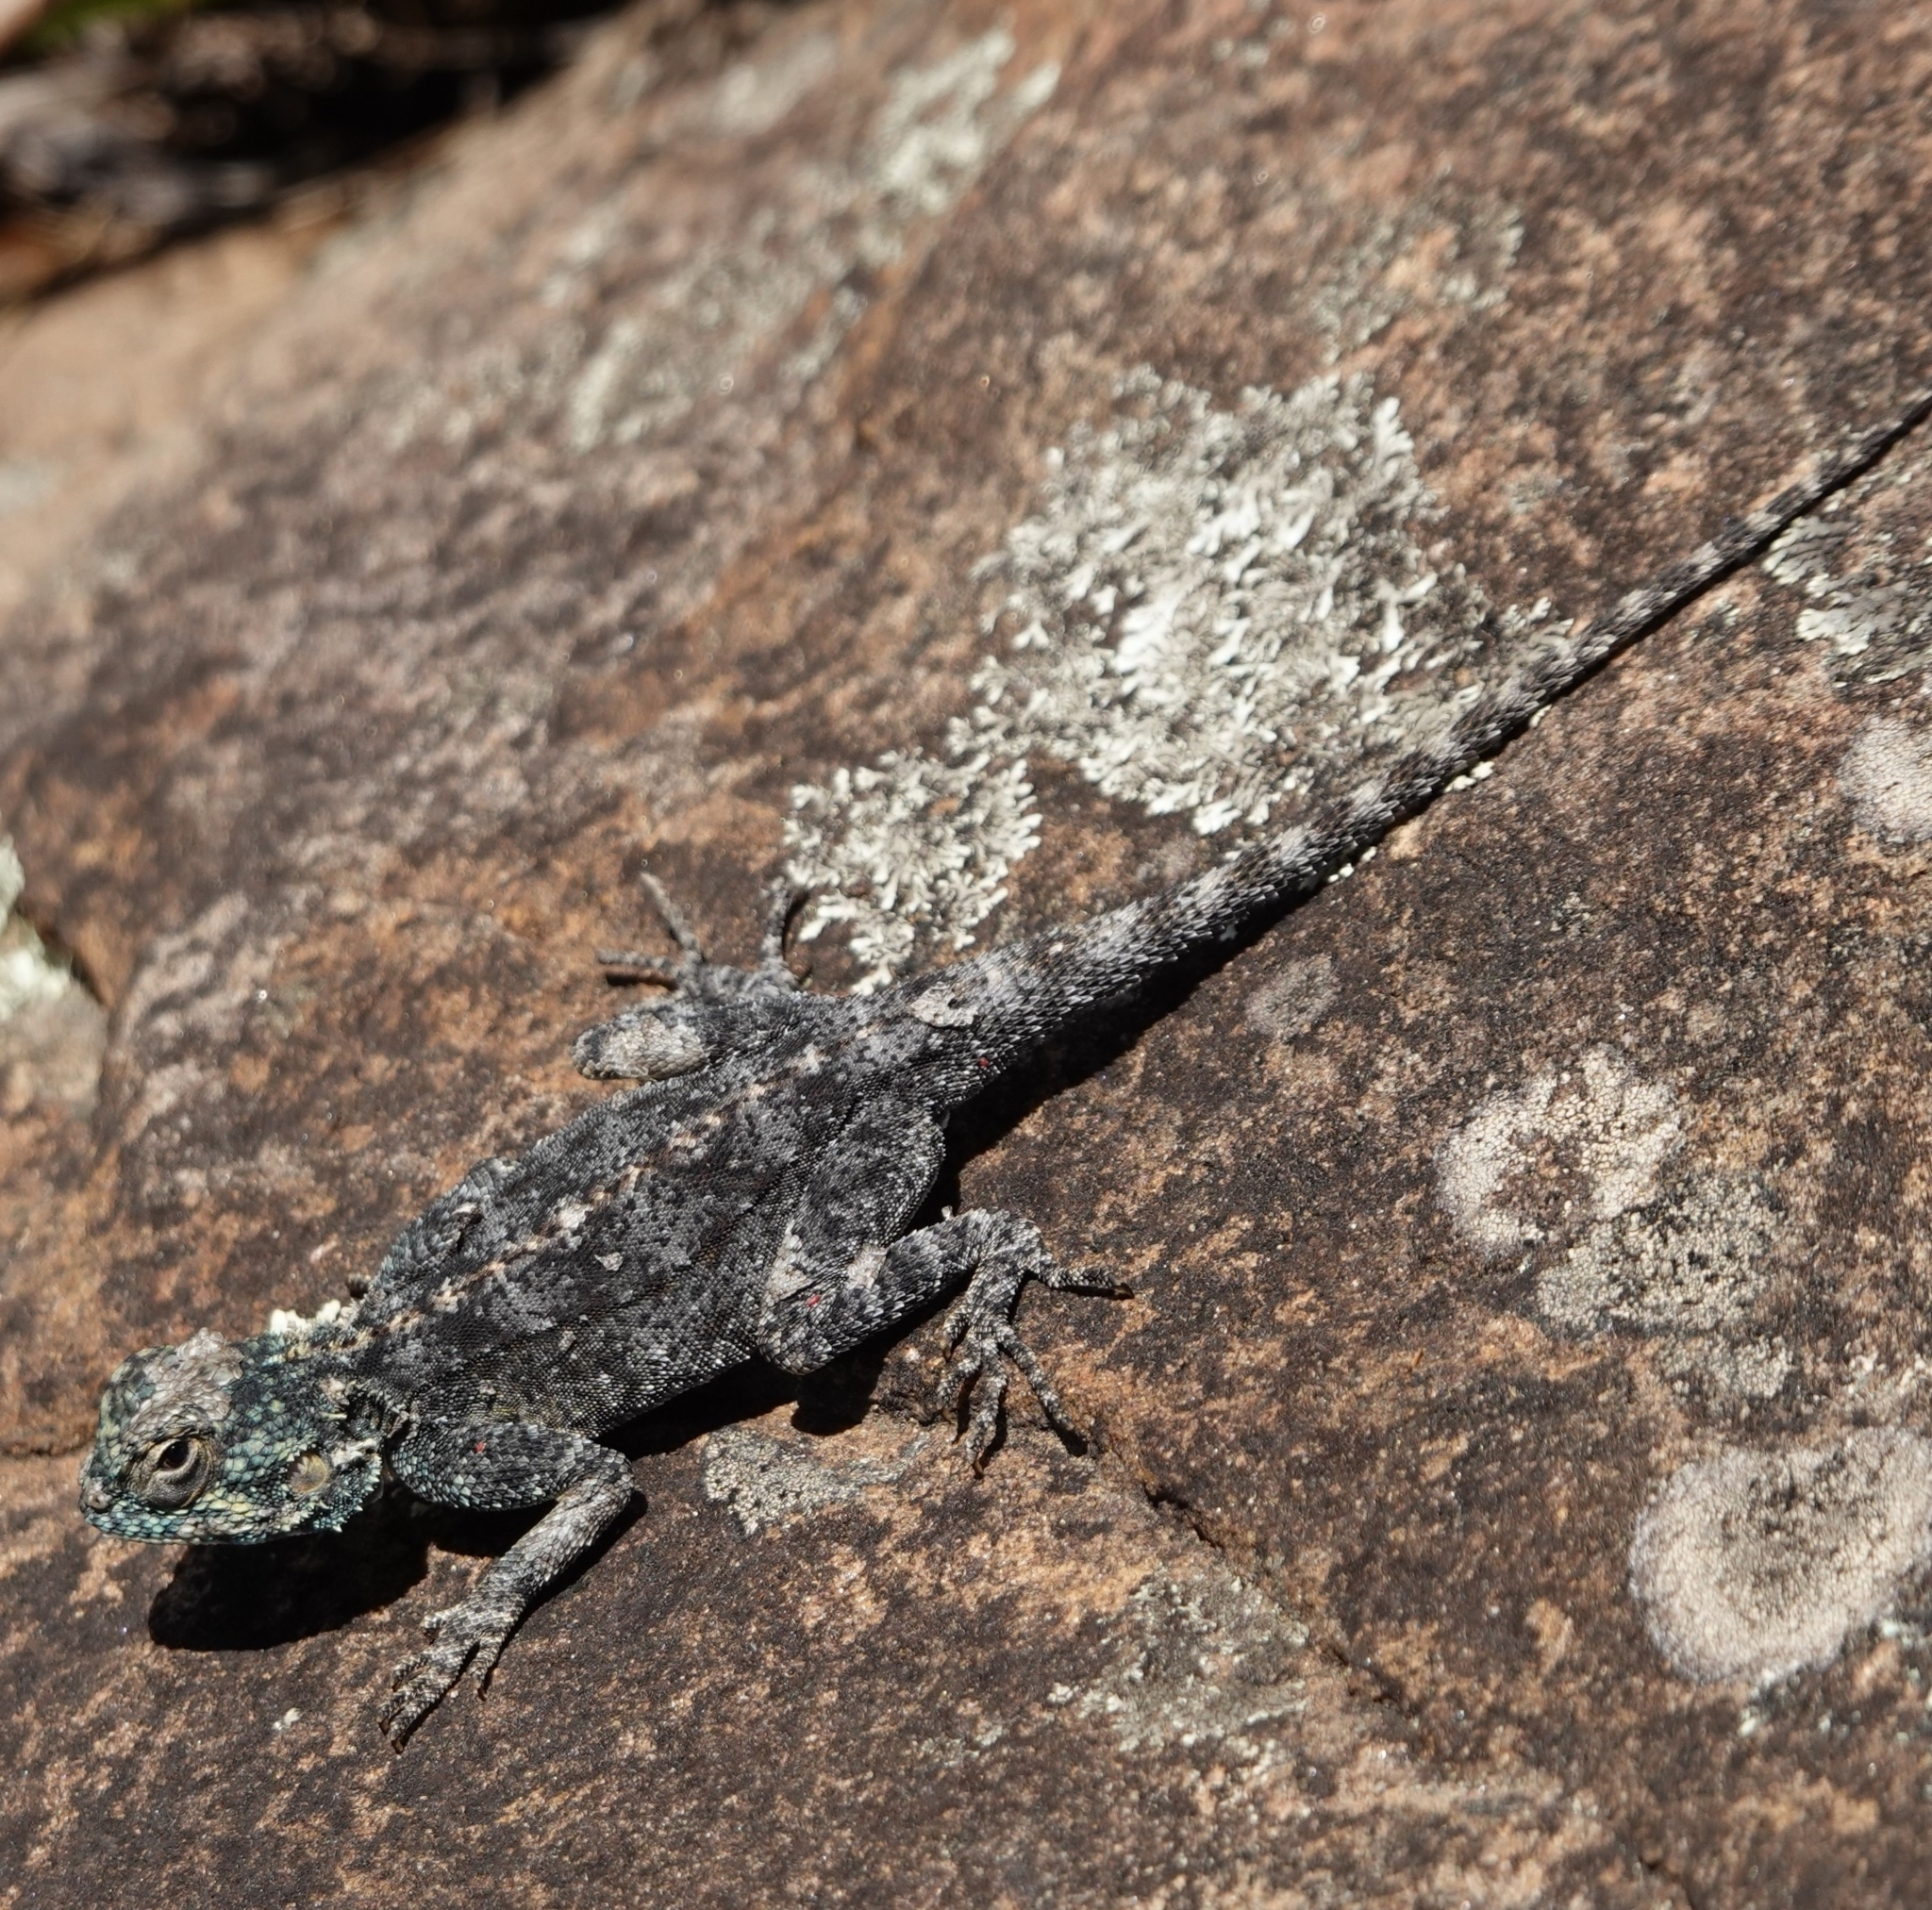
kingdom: Animalia
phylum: Chordata
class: Squamata
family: Agamidae
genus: Agama
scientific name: Agama atra
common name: Southern african rock agama
